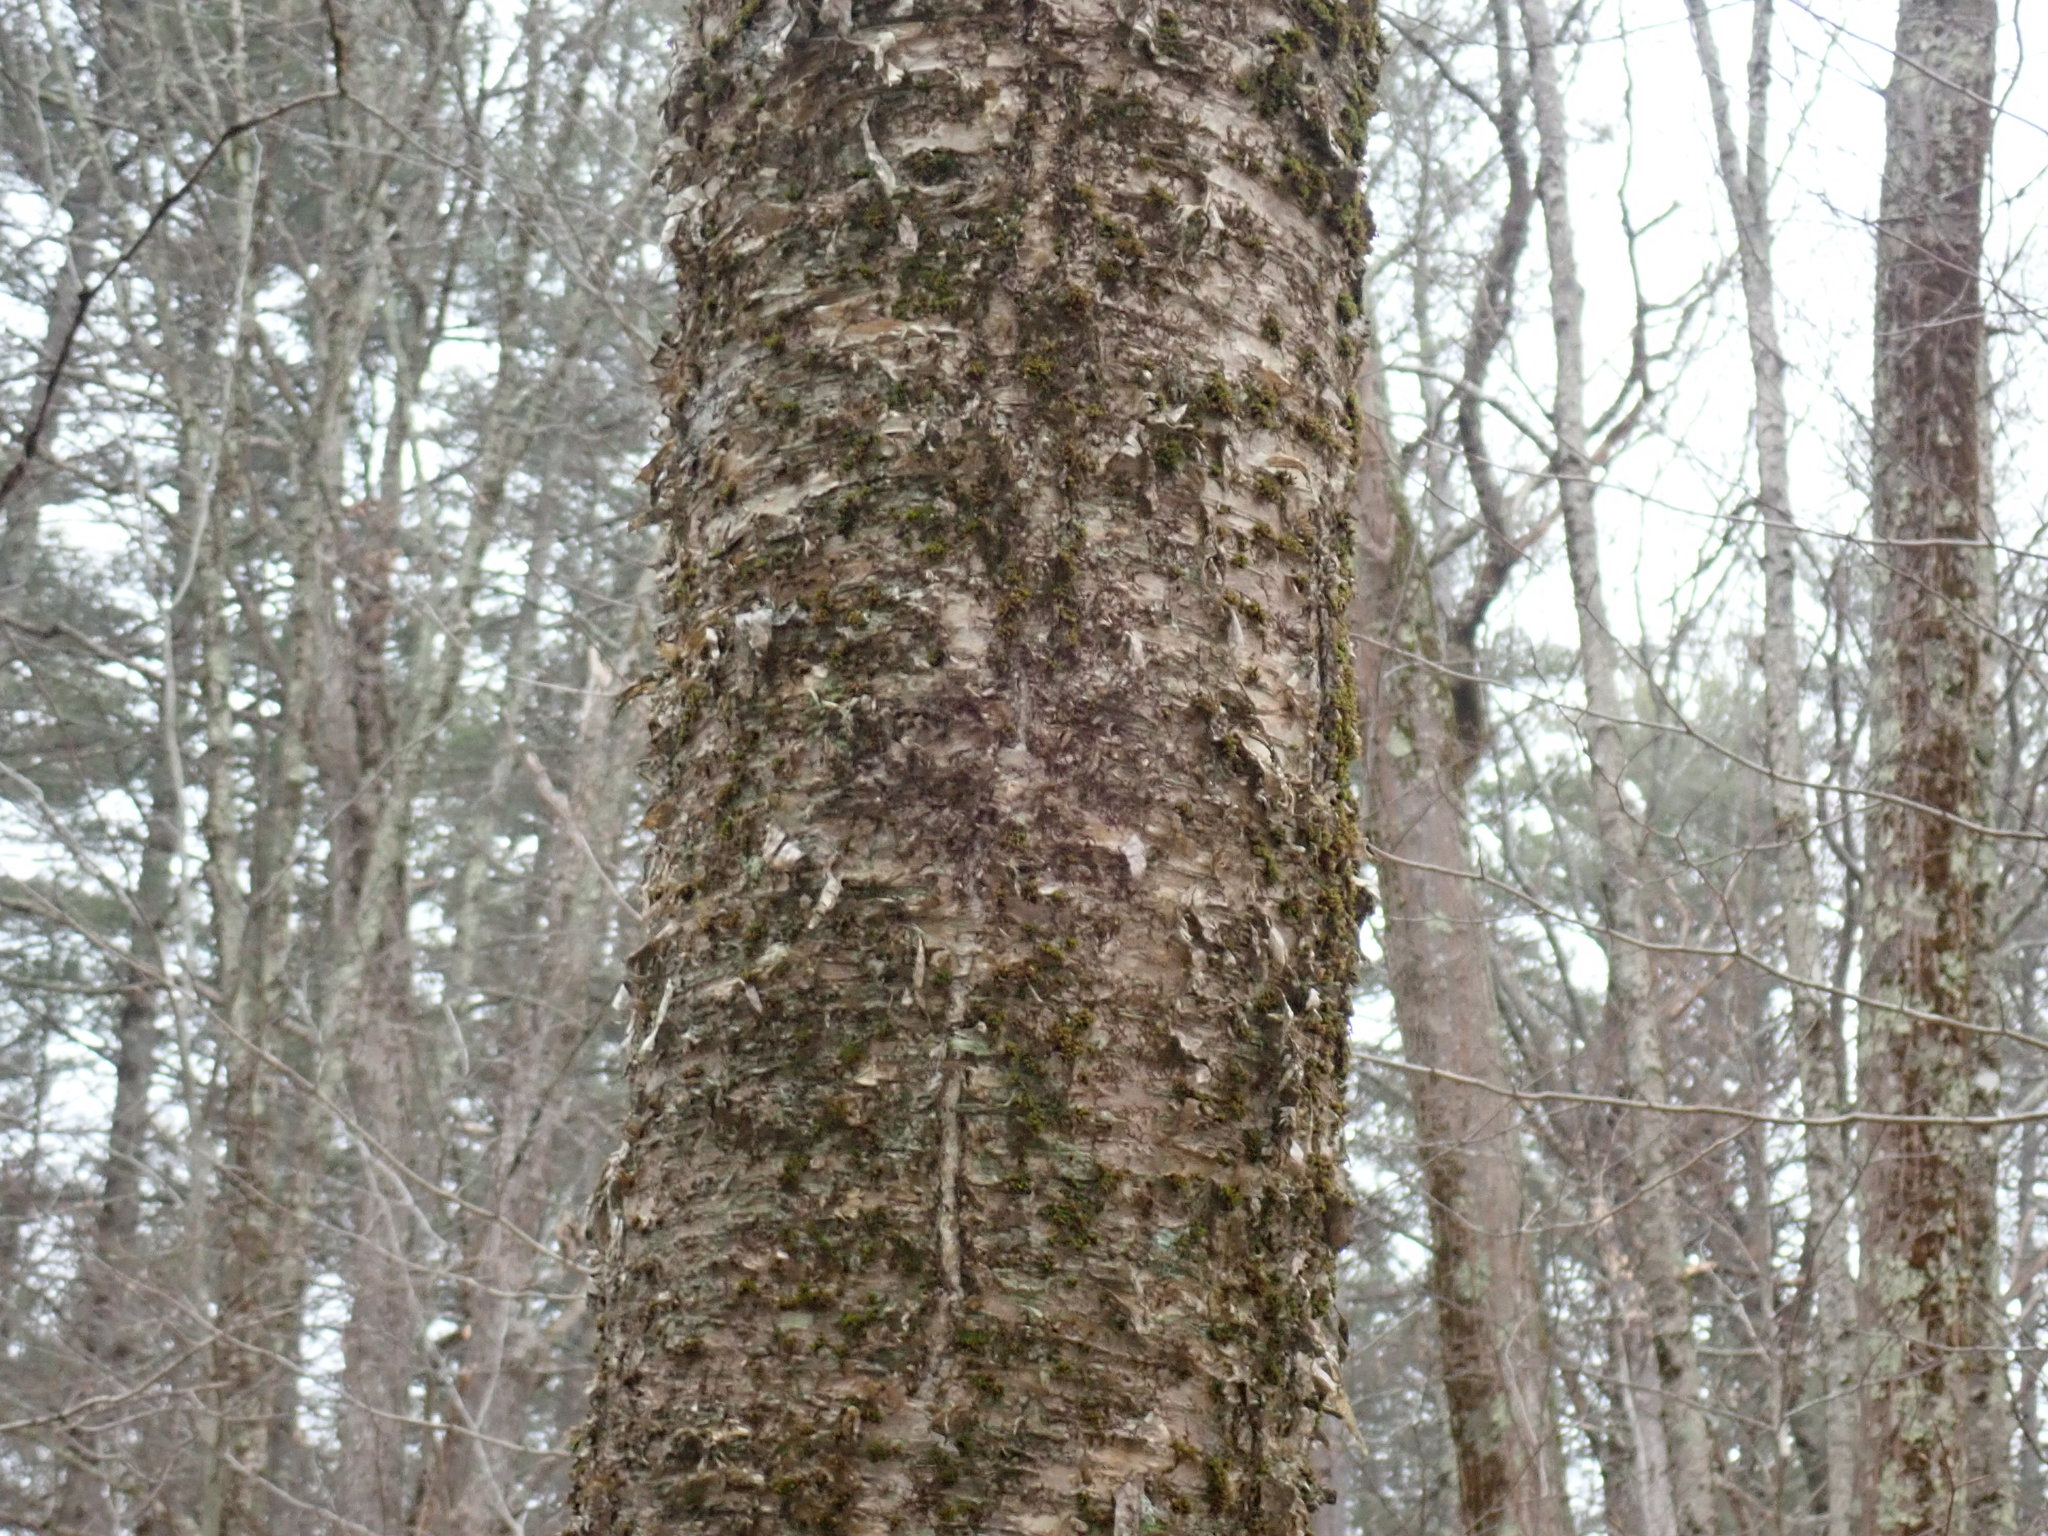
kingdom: Plantae
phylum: Tracheophyta
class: Magnoliopsida
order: Fagales
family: Betulaceae
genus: Betula
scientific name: Betula alleghaniensis
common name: Yellow birch
